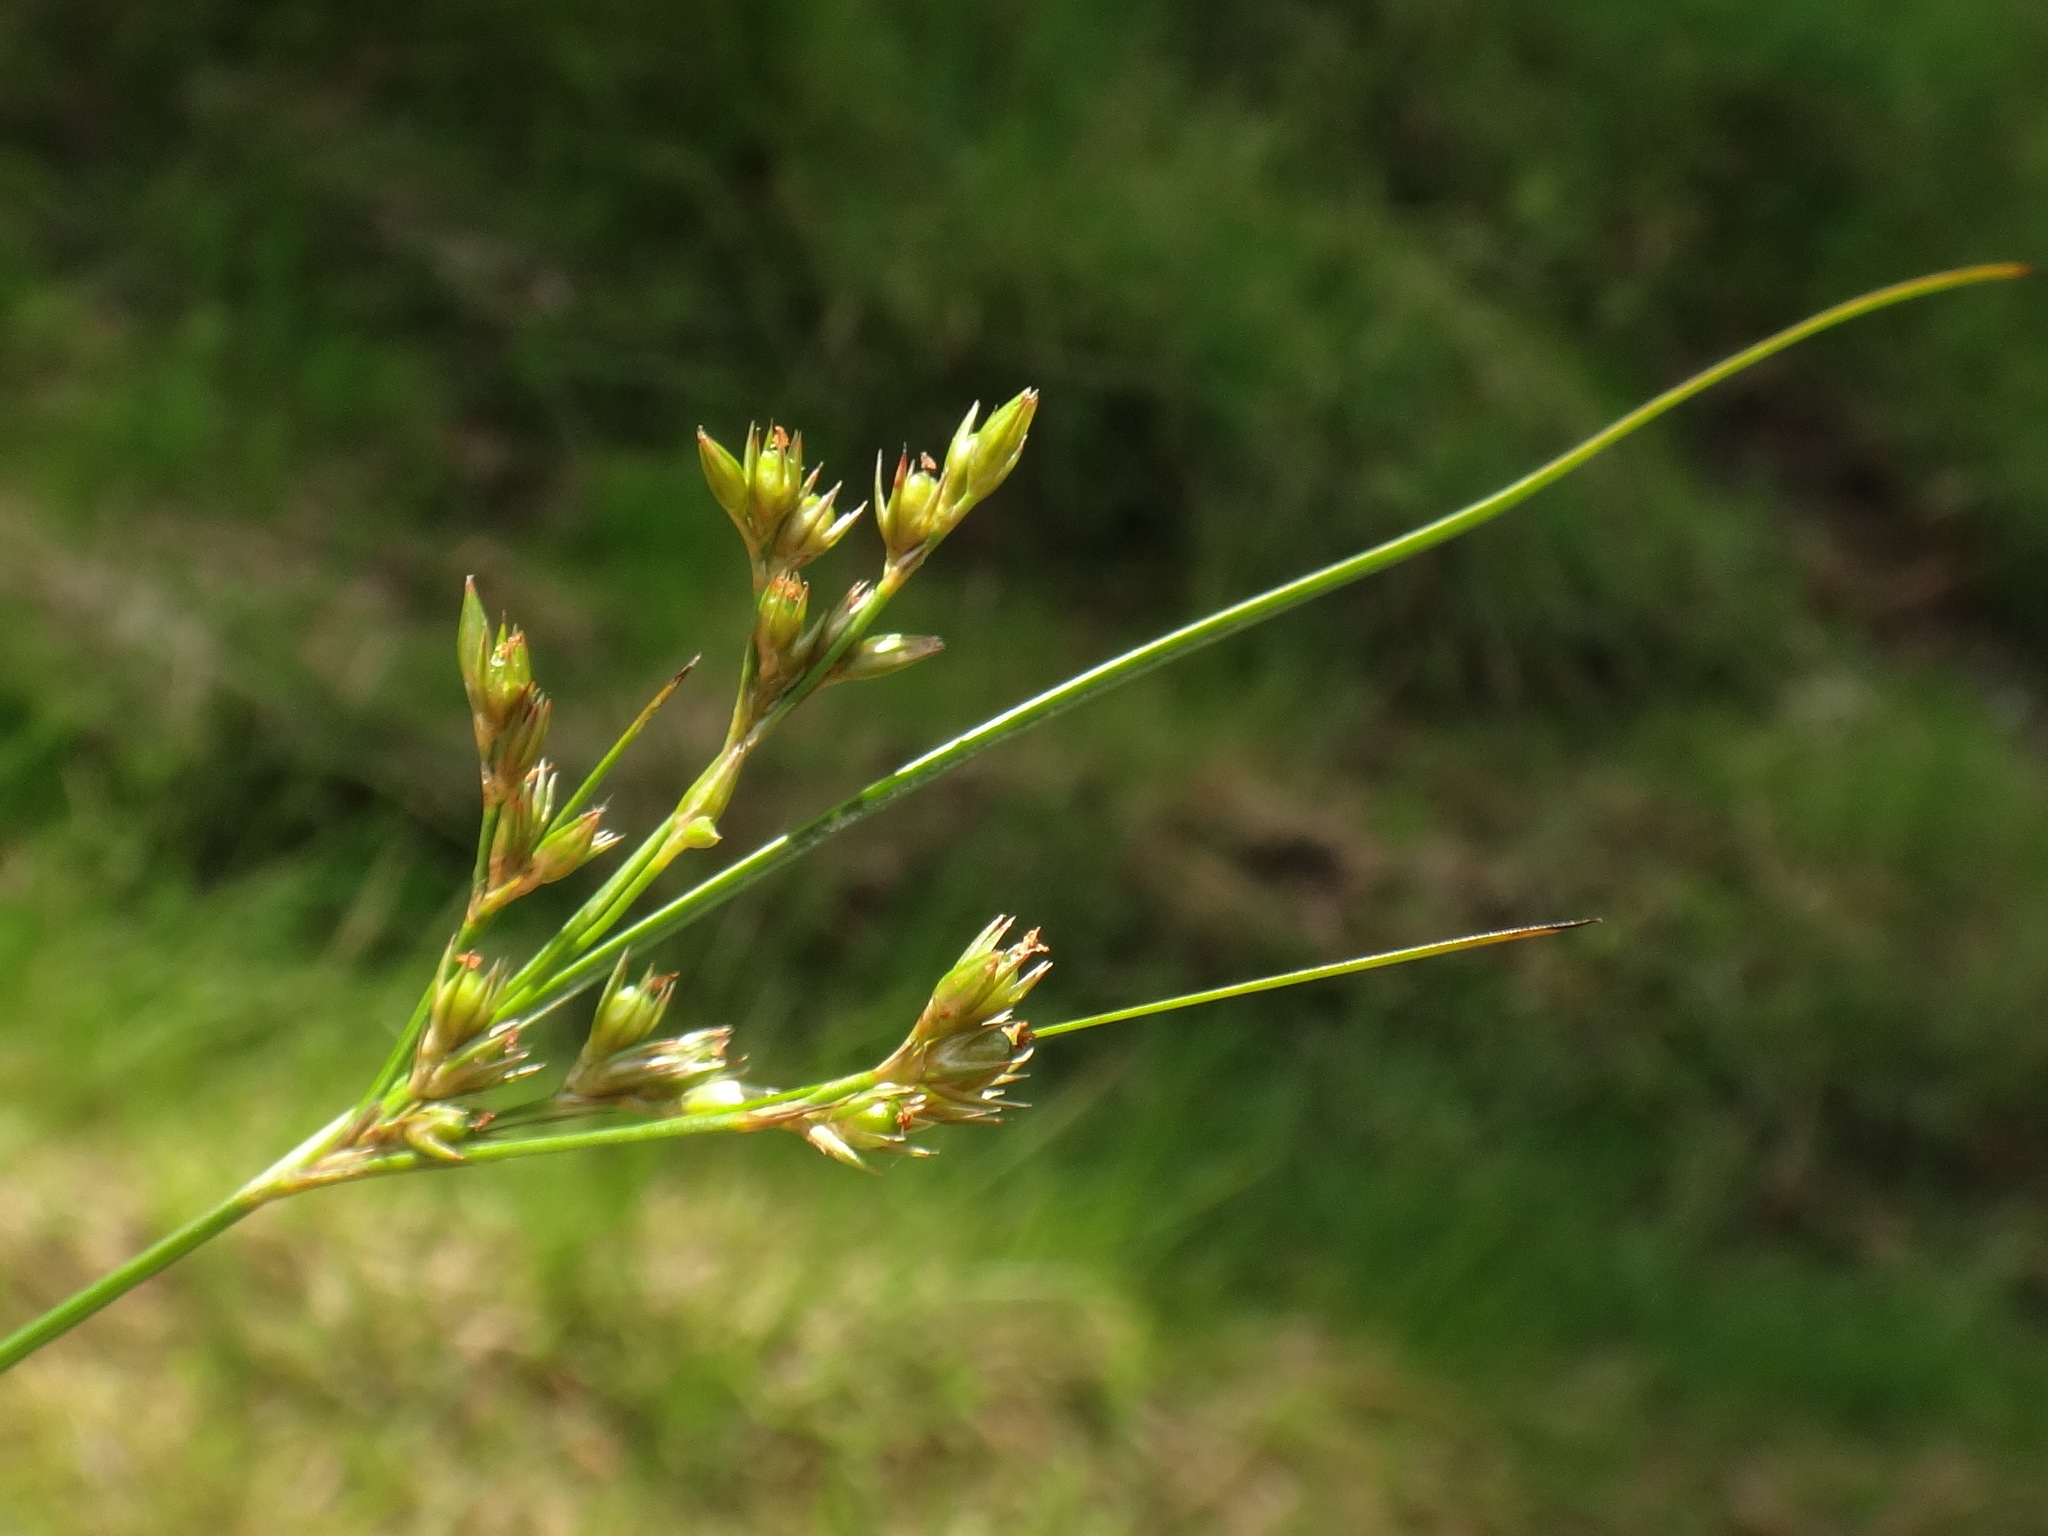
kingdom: Plantae
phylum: Tracheophyta
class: Liliopsida
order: Poales
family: Juncaceae
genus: Juncus
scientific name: Juncus tenuis
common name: Slender rush
